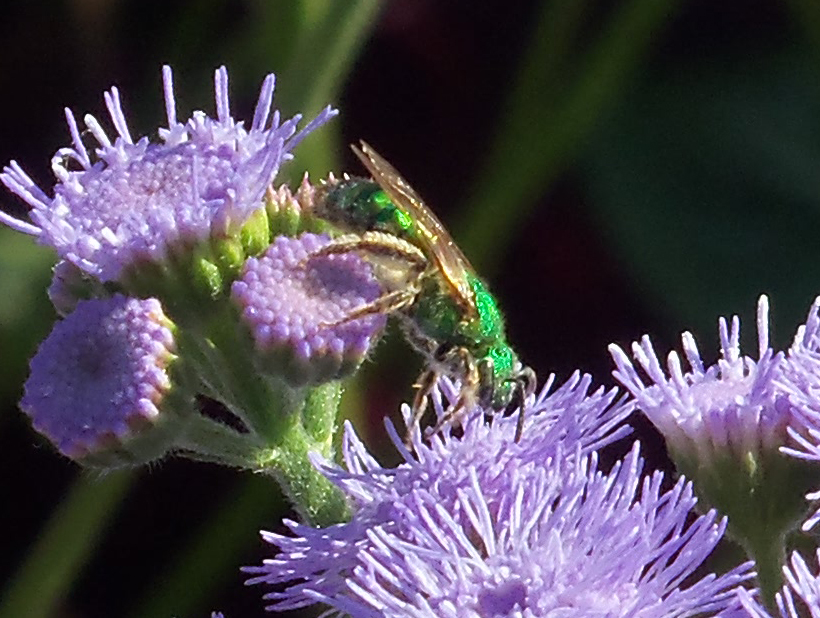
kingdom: Animalia
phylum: Arthropoda
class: Insecta
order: Hymenoptera
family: Halictidae
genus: Agapostemon
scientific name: Agapostemon
